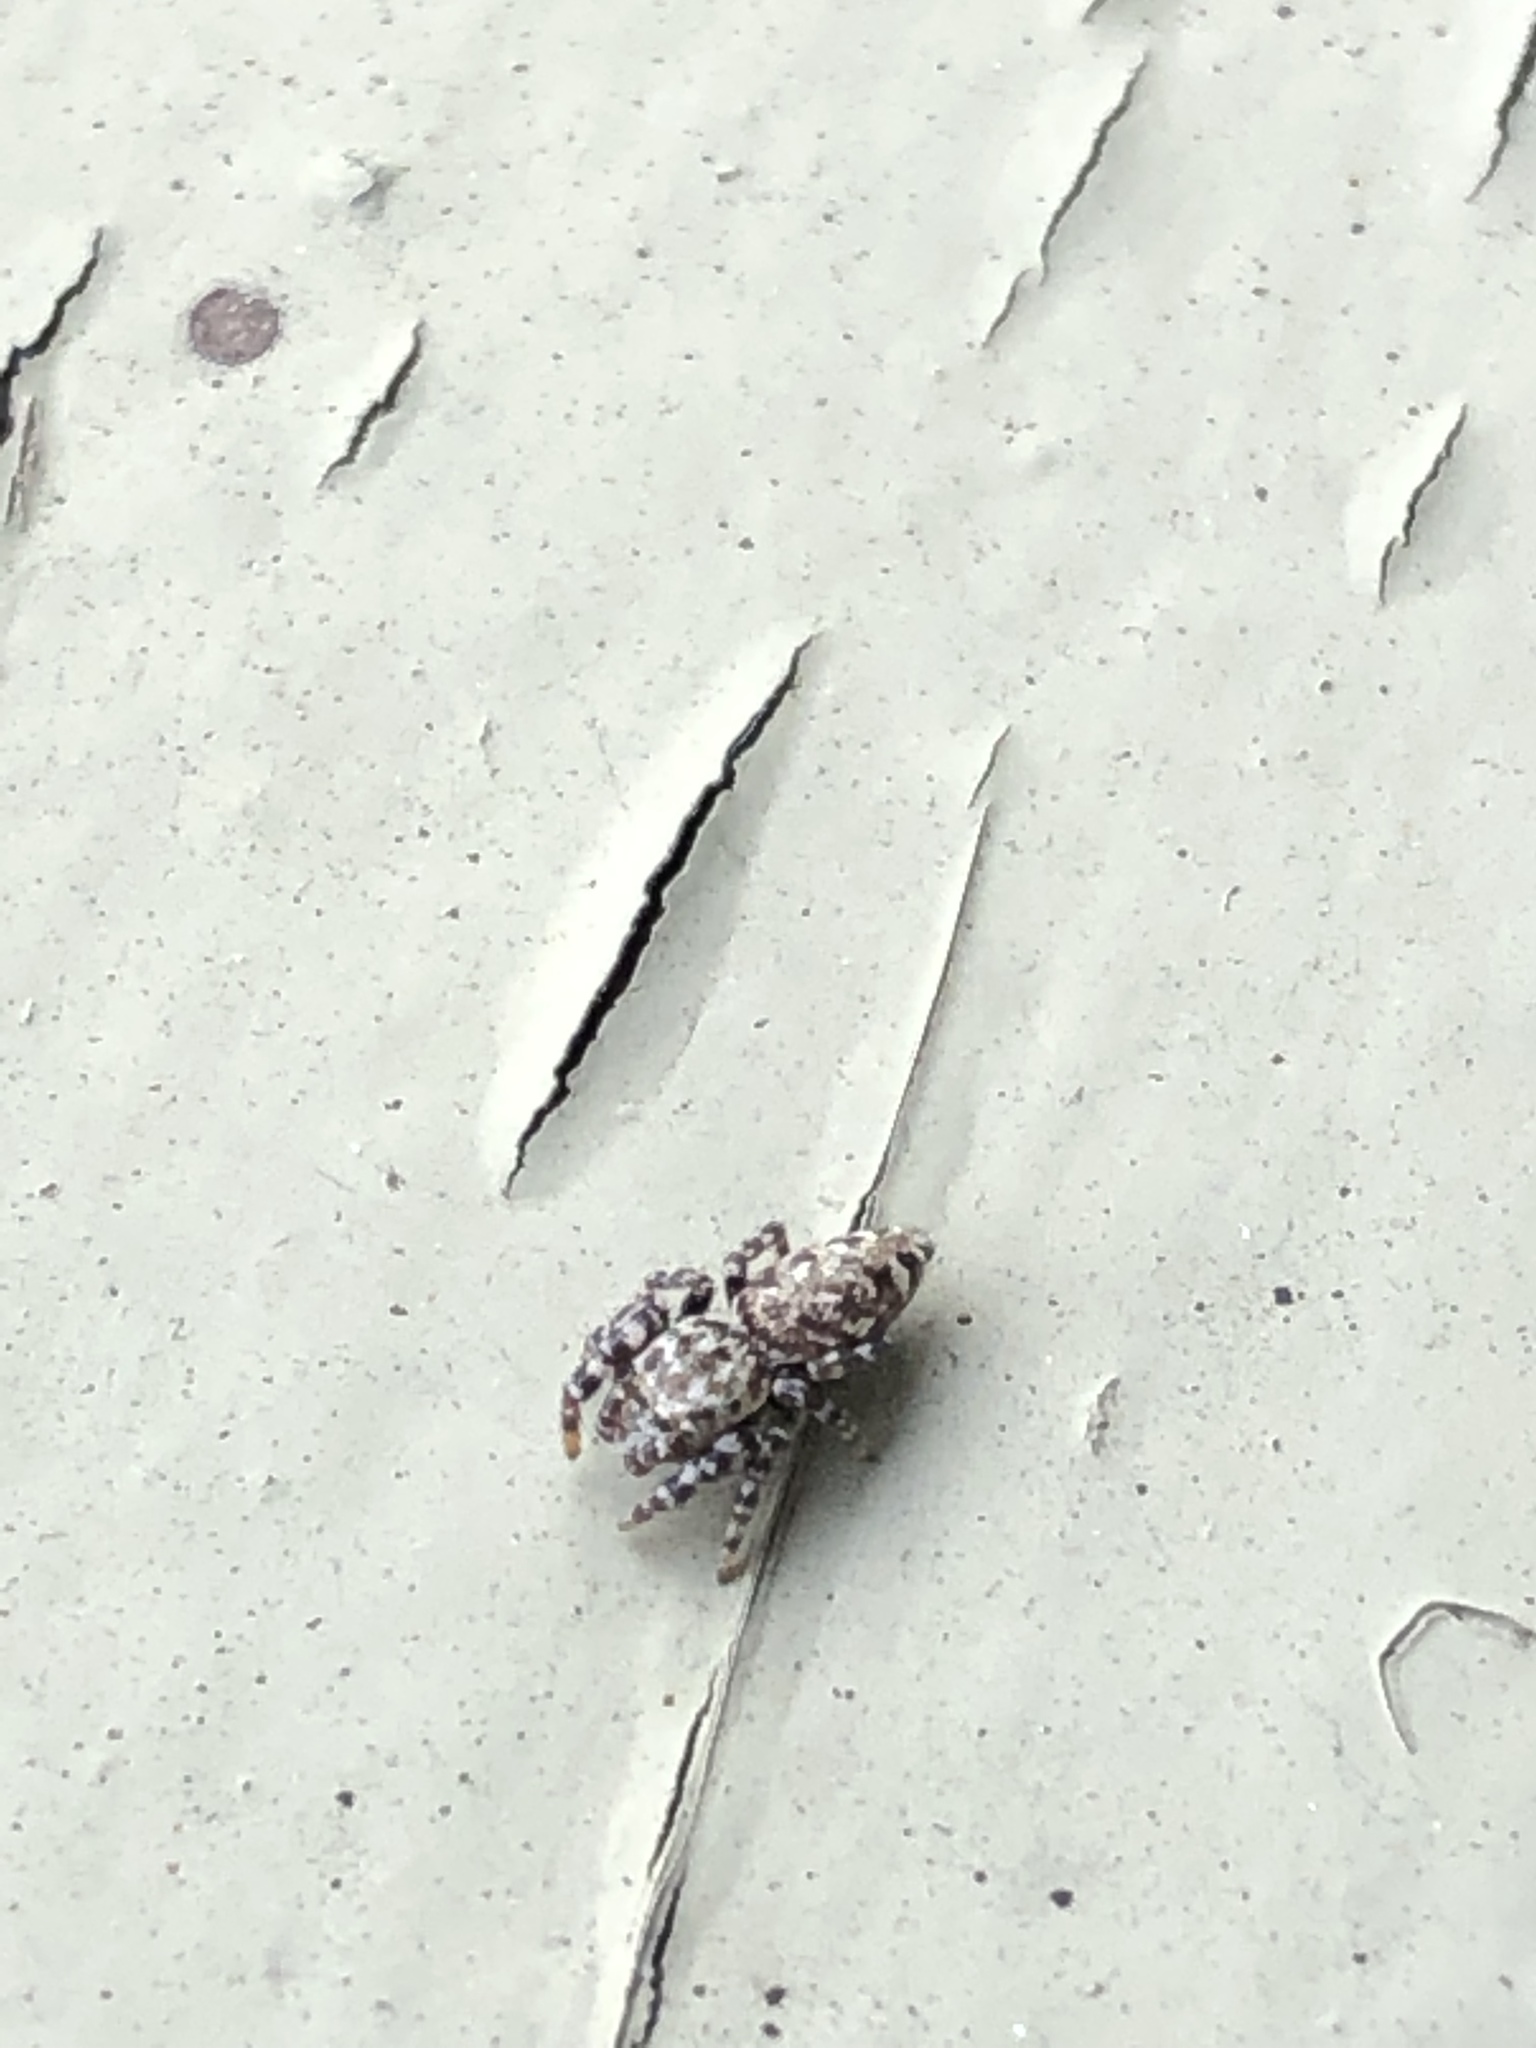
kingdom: Animalia
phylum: Arthropoda
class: Arachnida
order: Araneae
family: Salticidae
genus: Pelegrina
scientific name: Pelegrina galathea
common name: Jumping spiders
